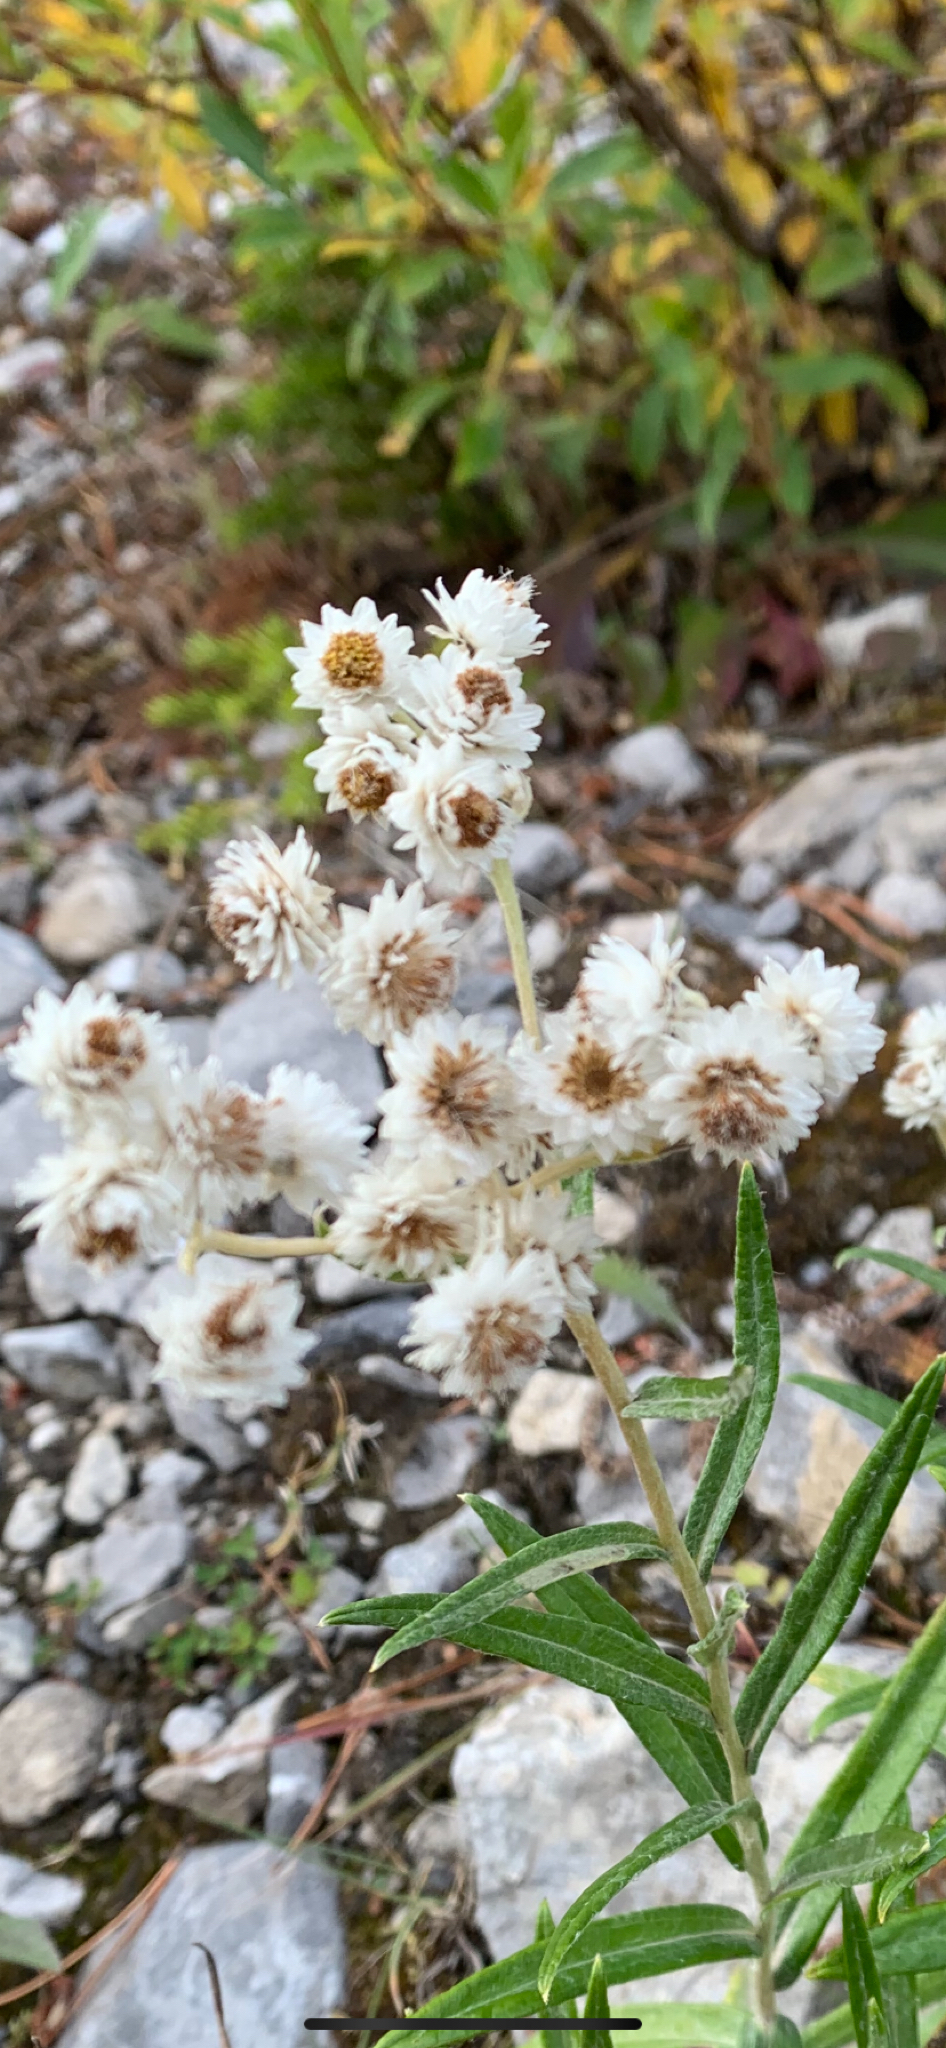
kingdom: Plantae
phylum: Tracheophyta
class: Magnoliopsida
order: Asterales
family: Asteraceae
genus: Anaphalis
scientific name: Anaphalis margaritacea
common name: Pearly everlasting
